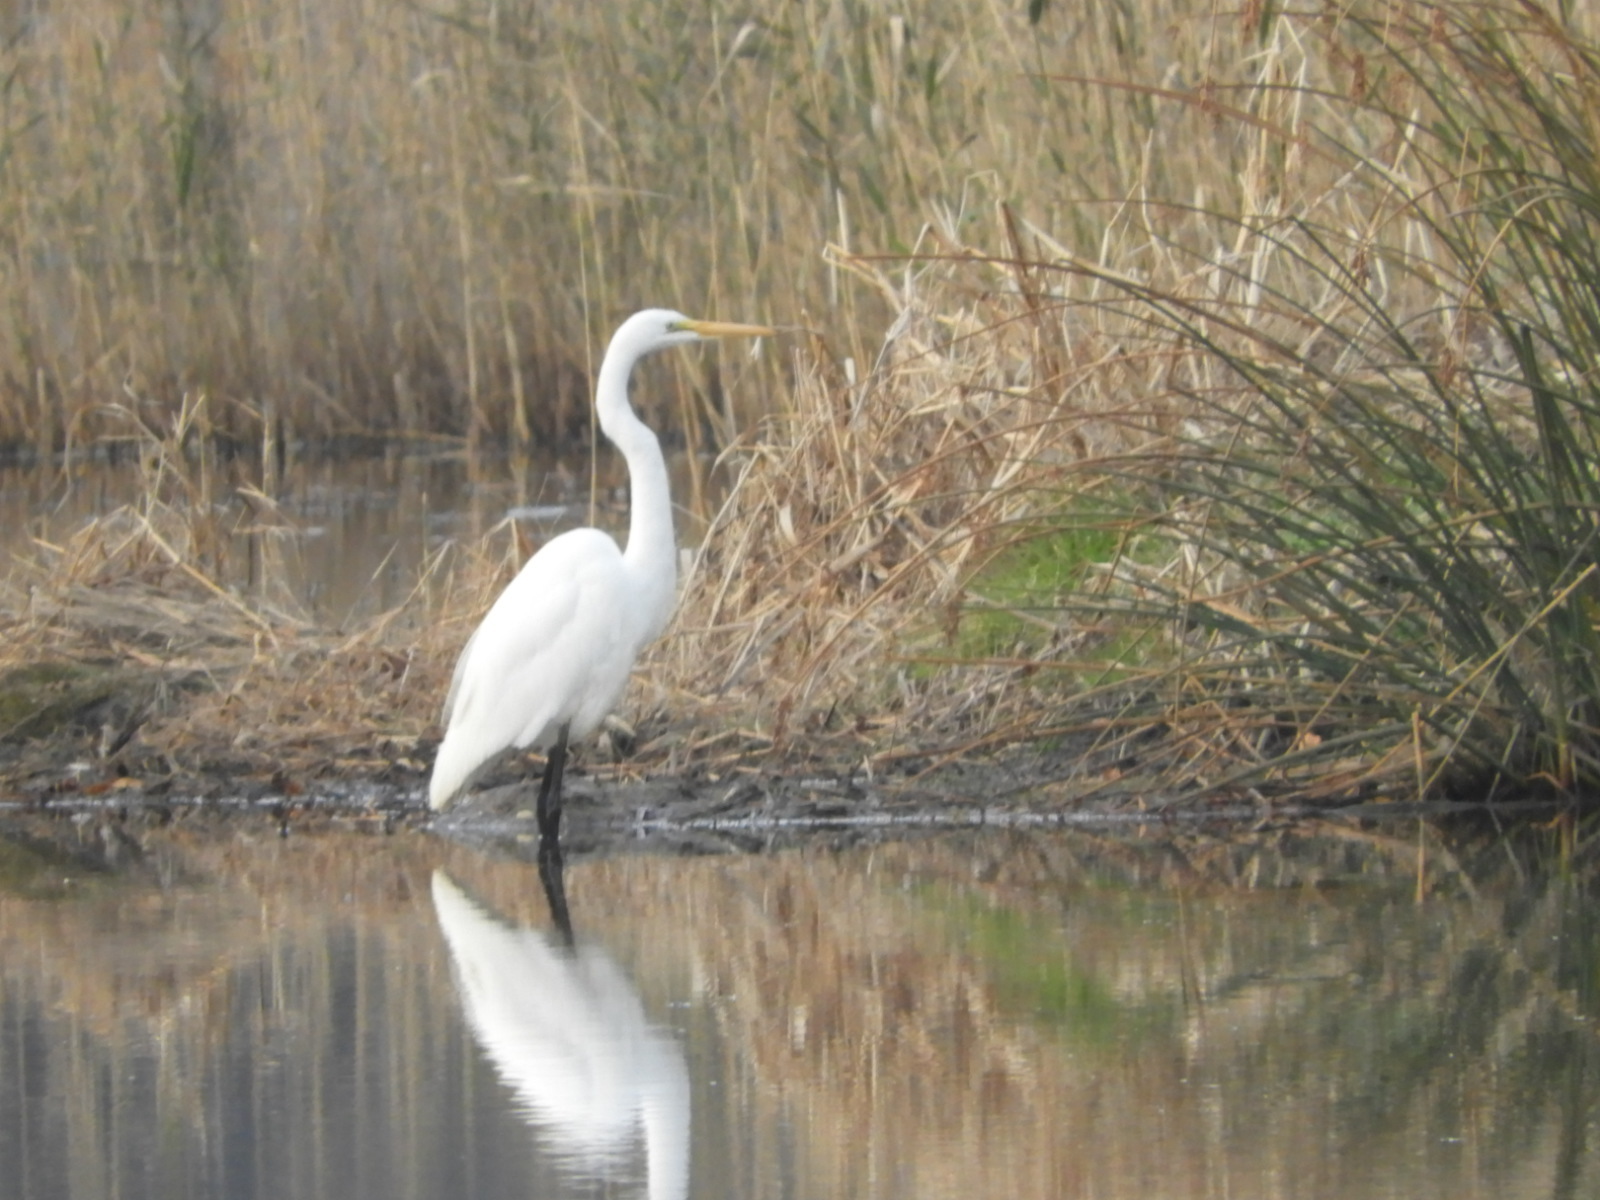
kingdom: Animalia
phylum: Chordata
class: Aves
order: Pelecaniformes
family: Ardeidae
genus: Ardea
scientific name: Ardea alba
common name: Great egret
